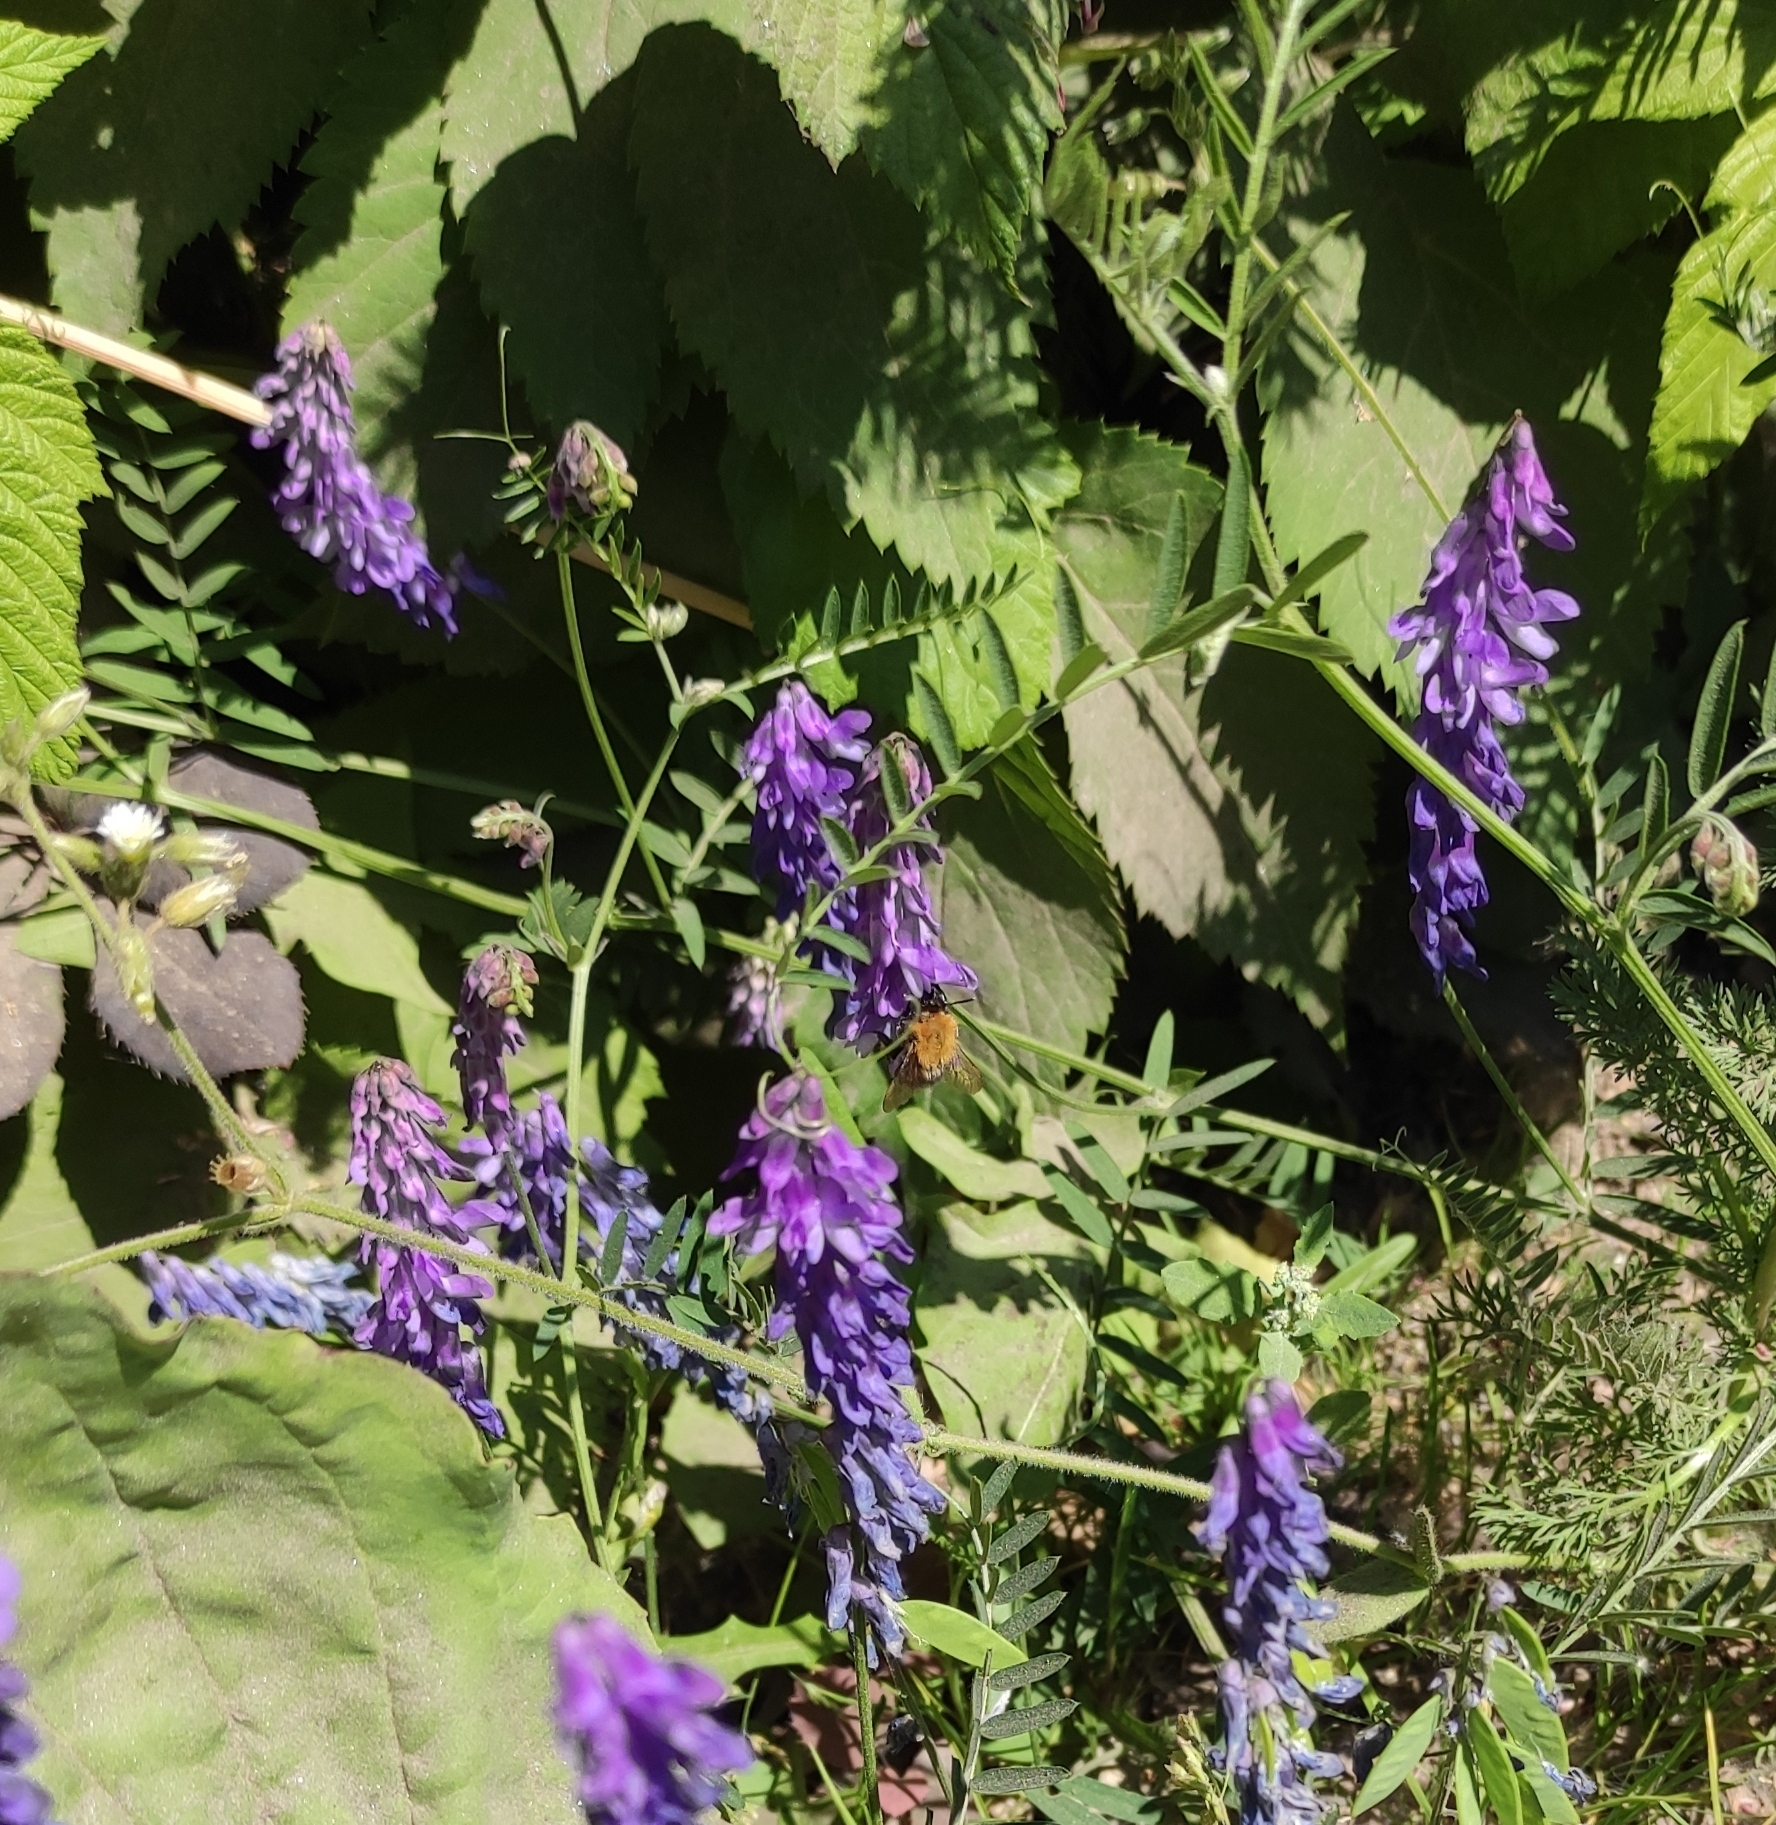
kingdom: Plantae
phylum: Tracheophyta
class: Magnoliopsida
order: Fabales
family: Fabaceae
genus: Vicia
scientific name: Vicia cracca
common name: Bird vetch
